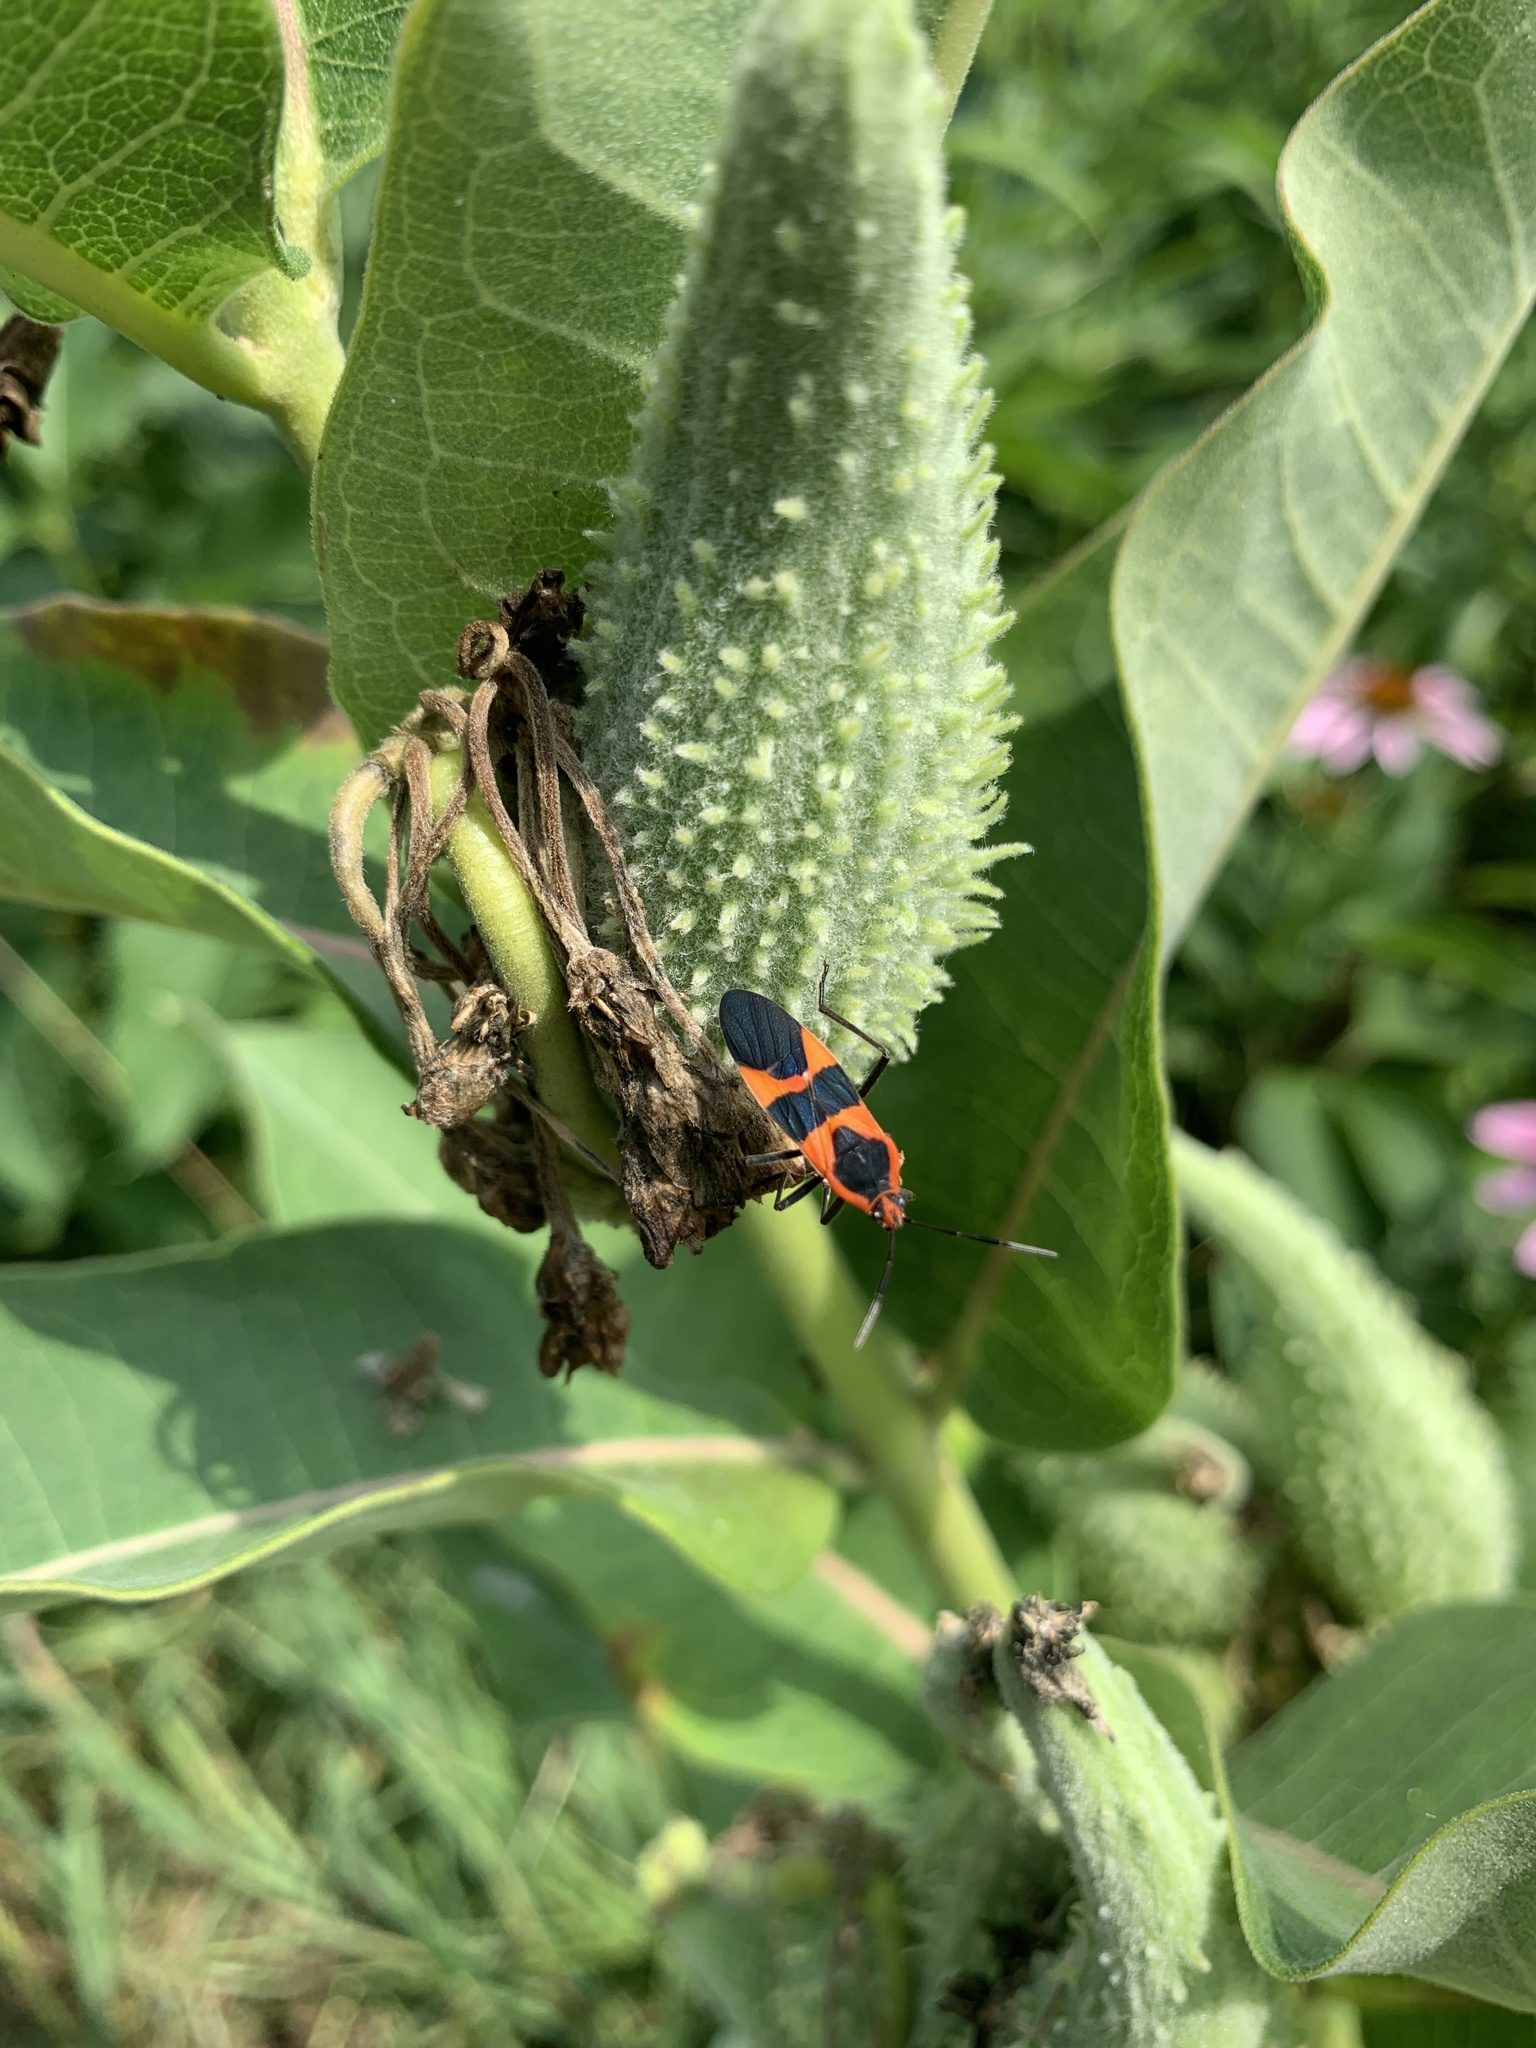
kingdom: Animalia
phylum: Arthropoda
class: Insecta
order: Hemiptera
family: Lygaeidae
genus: Oncopeltus
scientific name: Oncopeltus fasciatus
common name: Large milkweed bug
